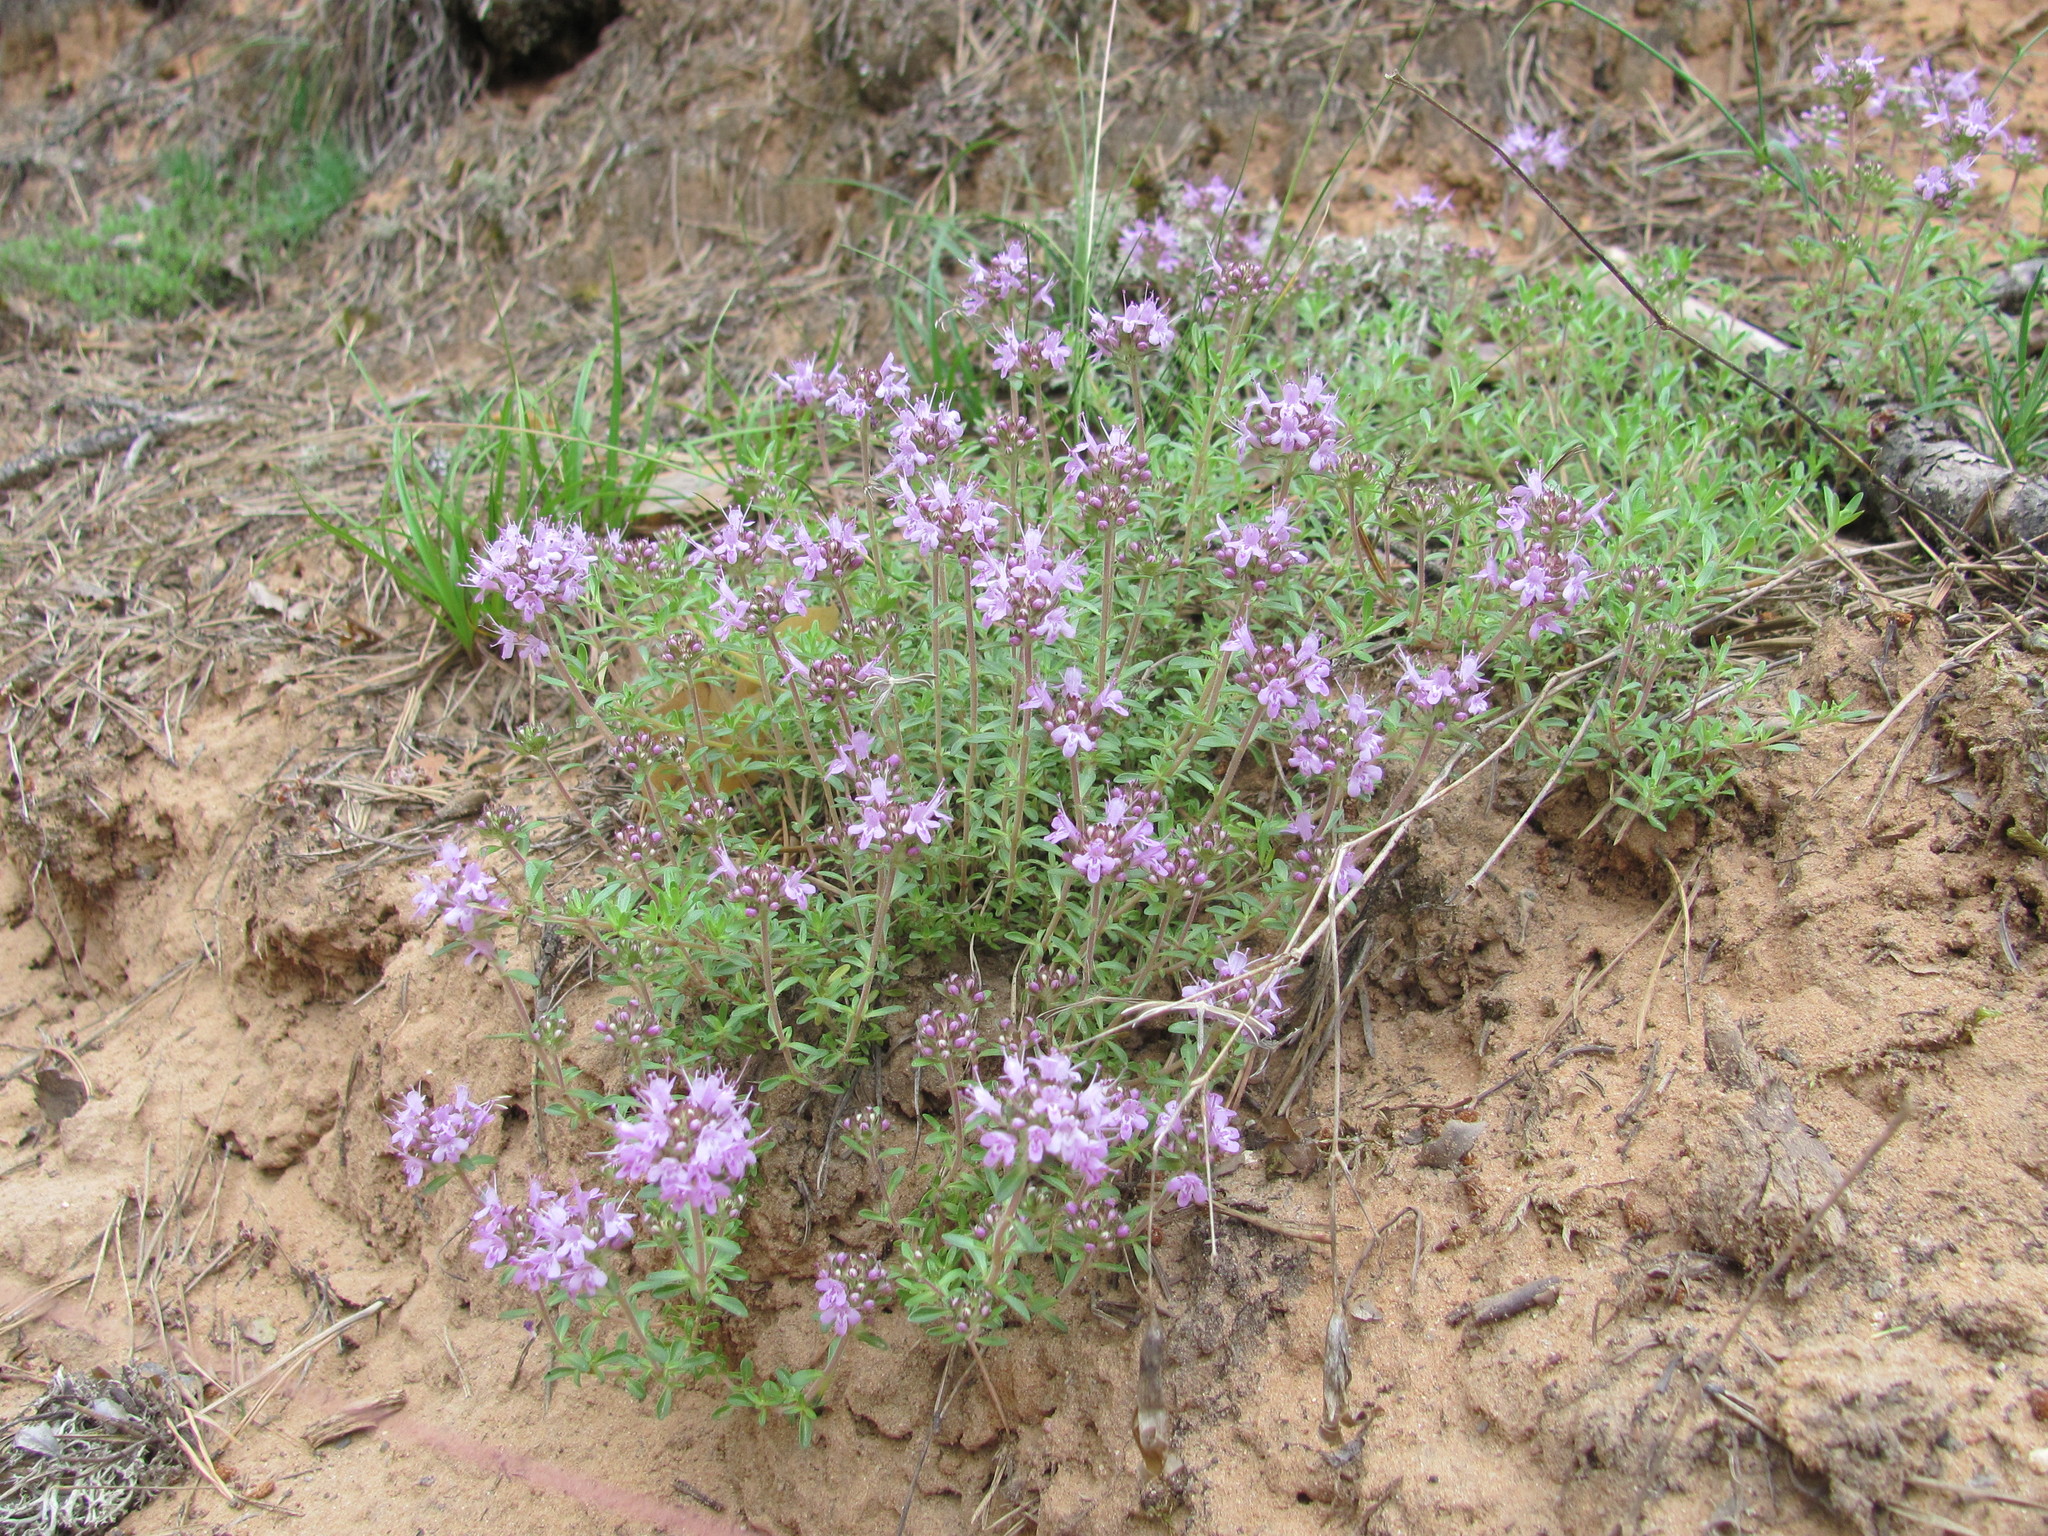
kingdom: Plantae
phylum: Tracheophyta
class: Magnoliopsida
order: Lamiales
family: Lamiaceae
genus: Thymus
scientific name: Thymus serpyllum
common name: Breckland thyme
